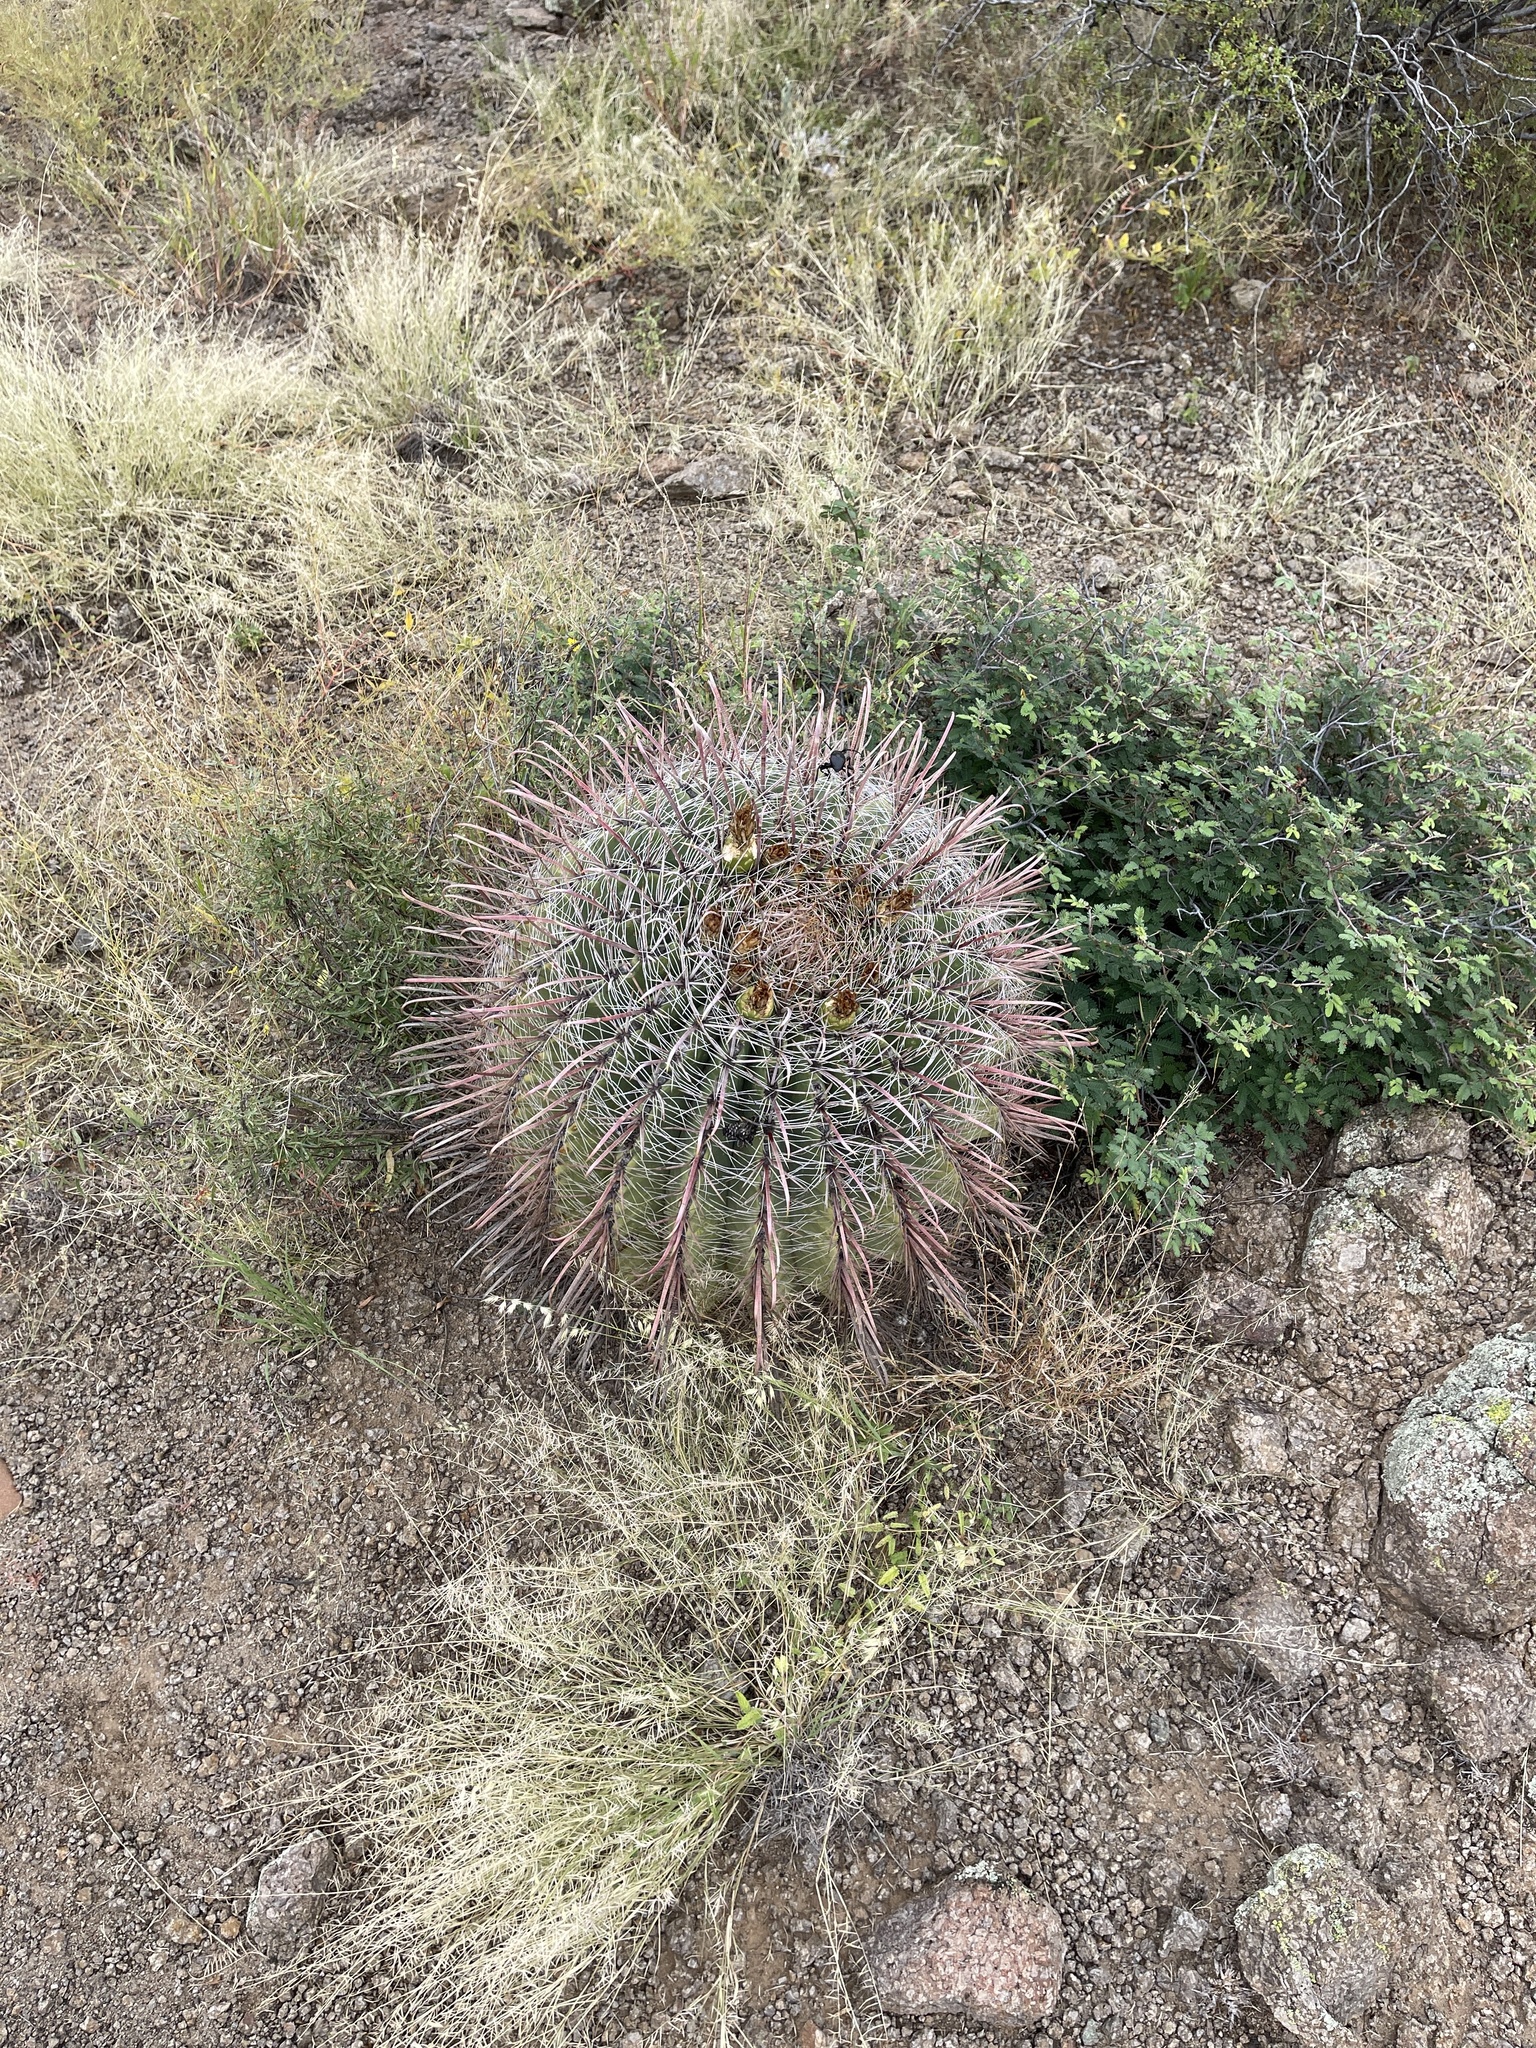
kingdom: Plantae
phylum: Tracheophyta
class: Magnoliopsida
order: Caryophyllales
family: Cactaceae
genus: Ferocactus
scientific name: Ferocactus wislizeni
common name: Candy barrel cactus
